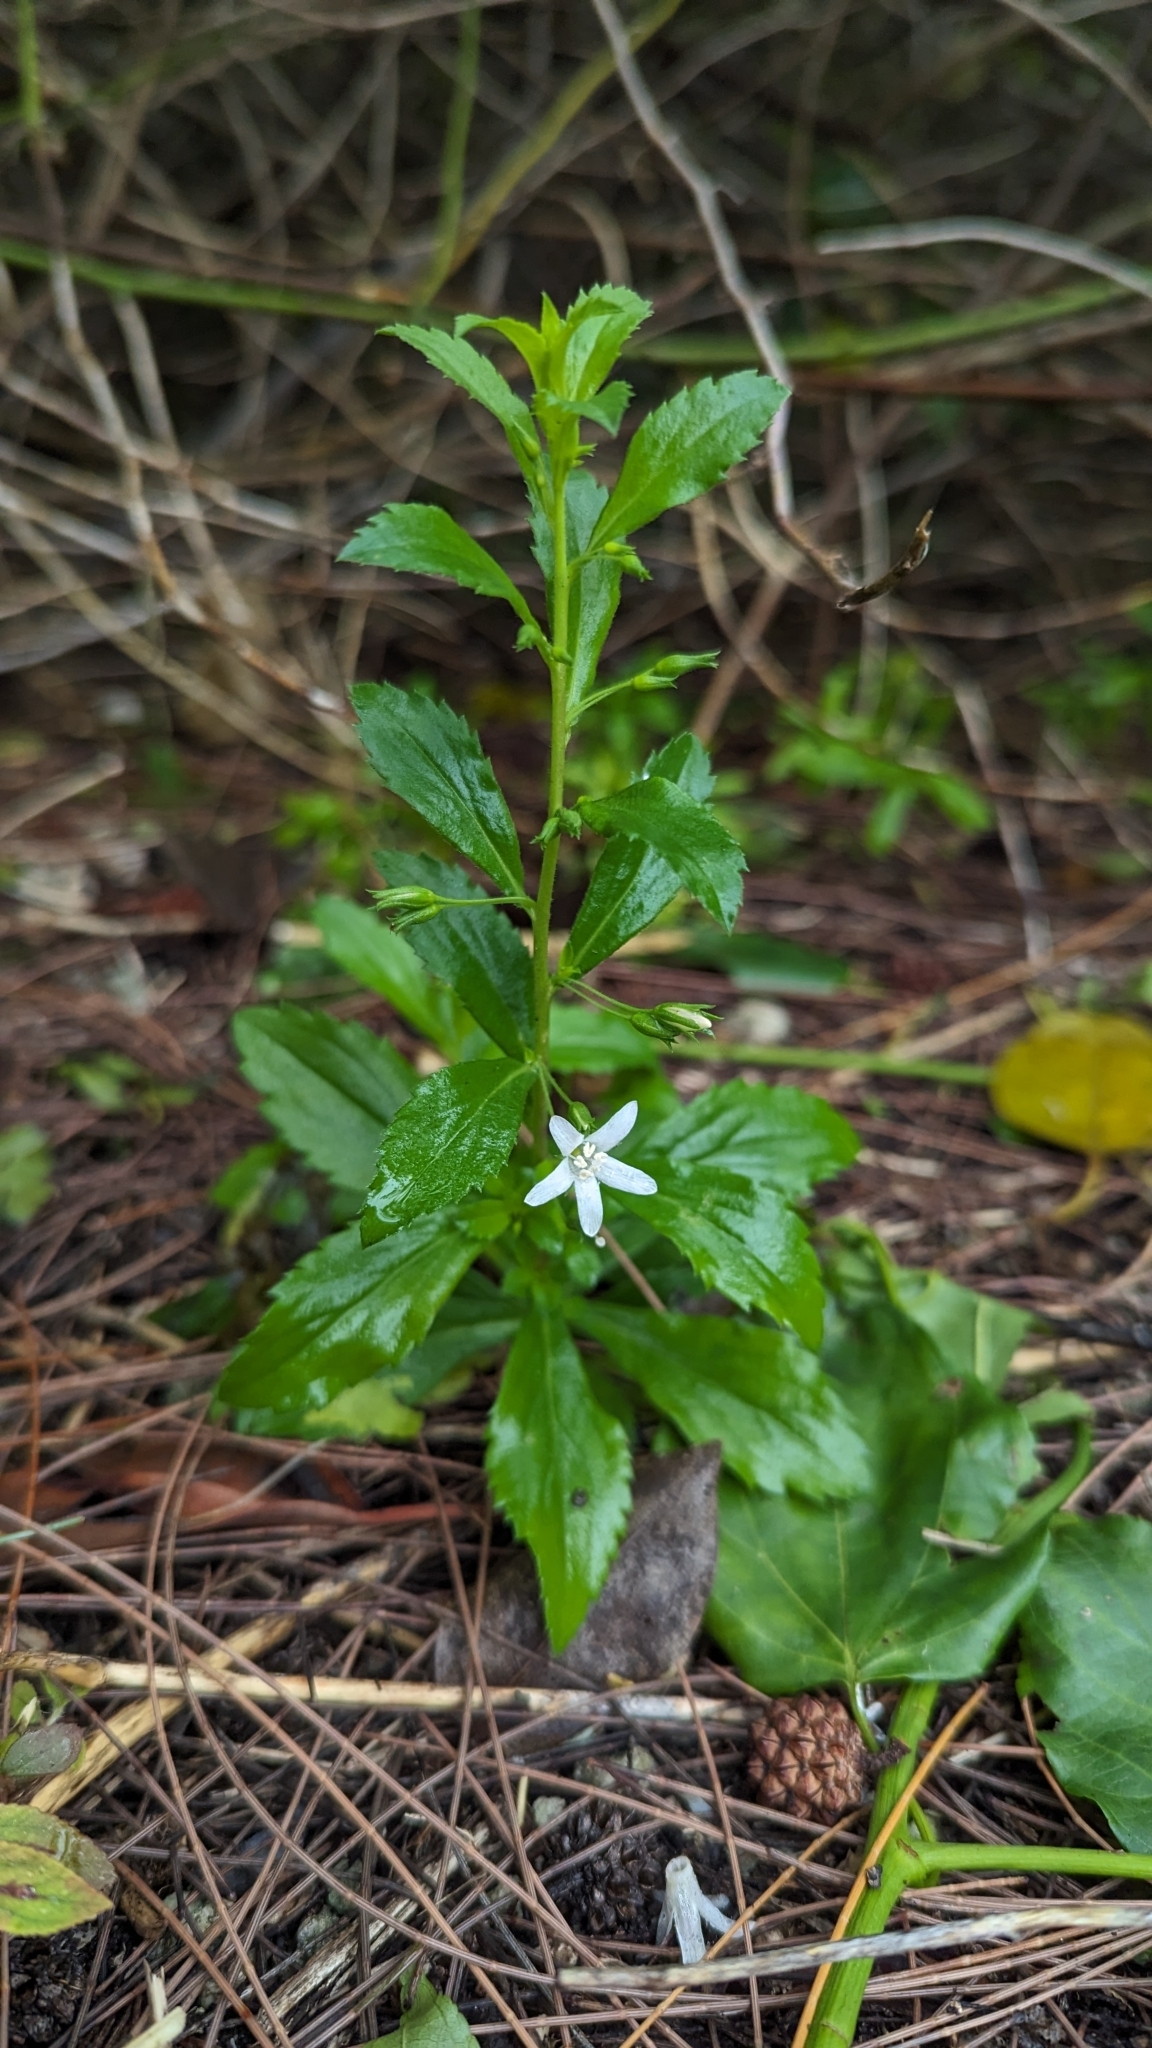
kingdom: Plantae
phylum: Tracheophyta
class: Magnoliopsida
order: Lamiales
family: Scrophulariaceae
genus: Capraria
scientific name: Capraria biflora
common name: Goatweed
